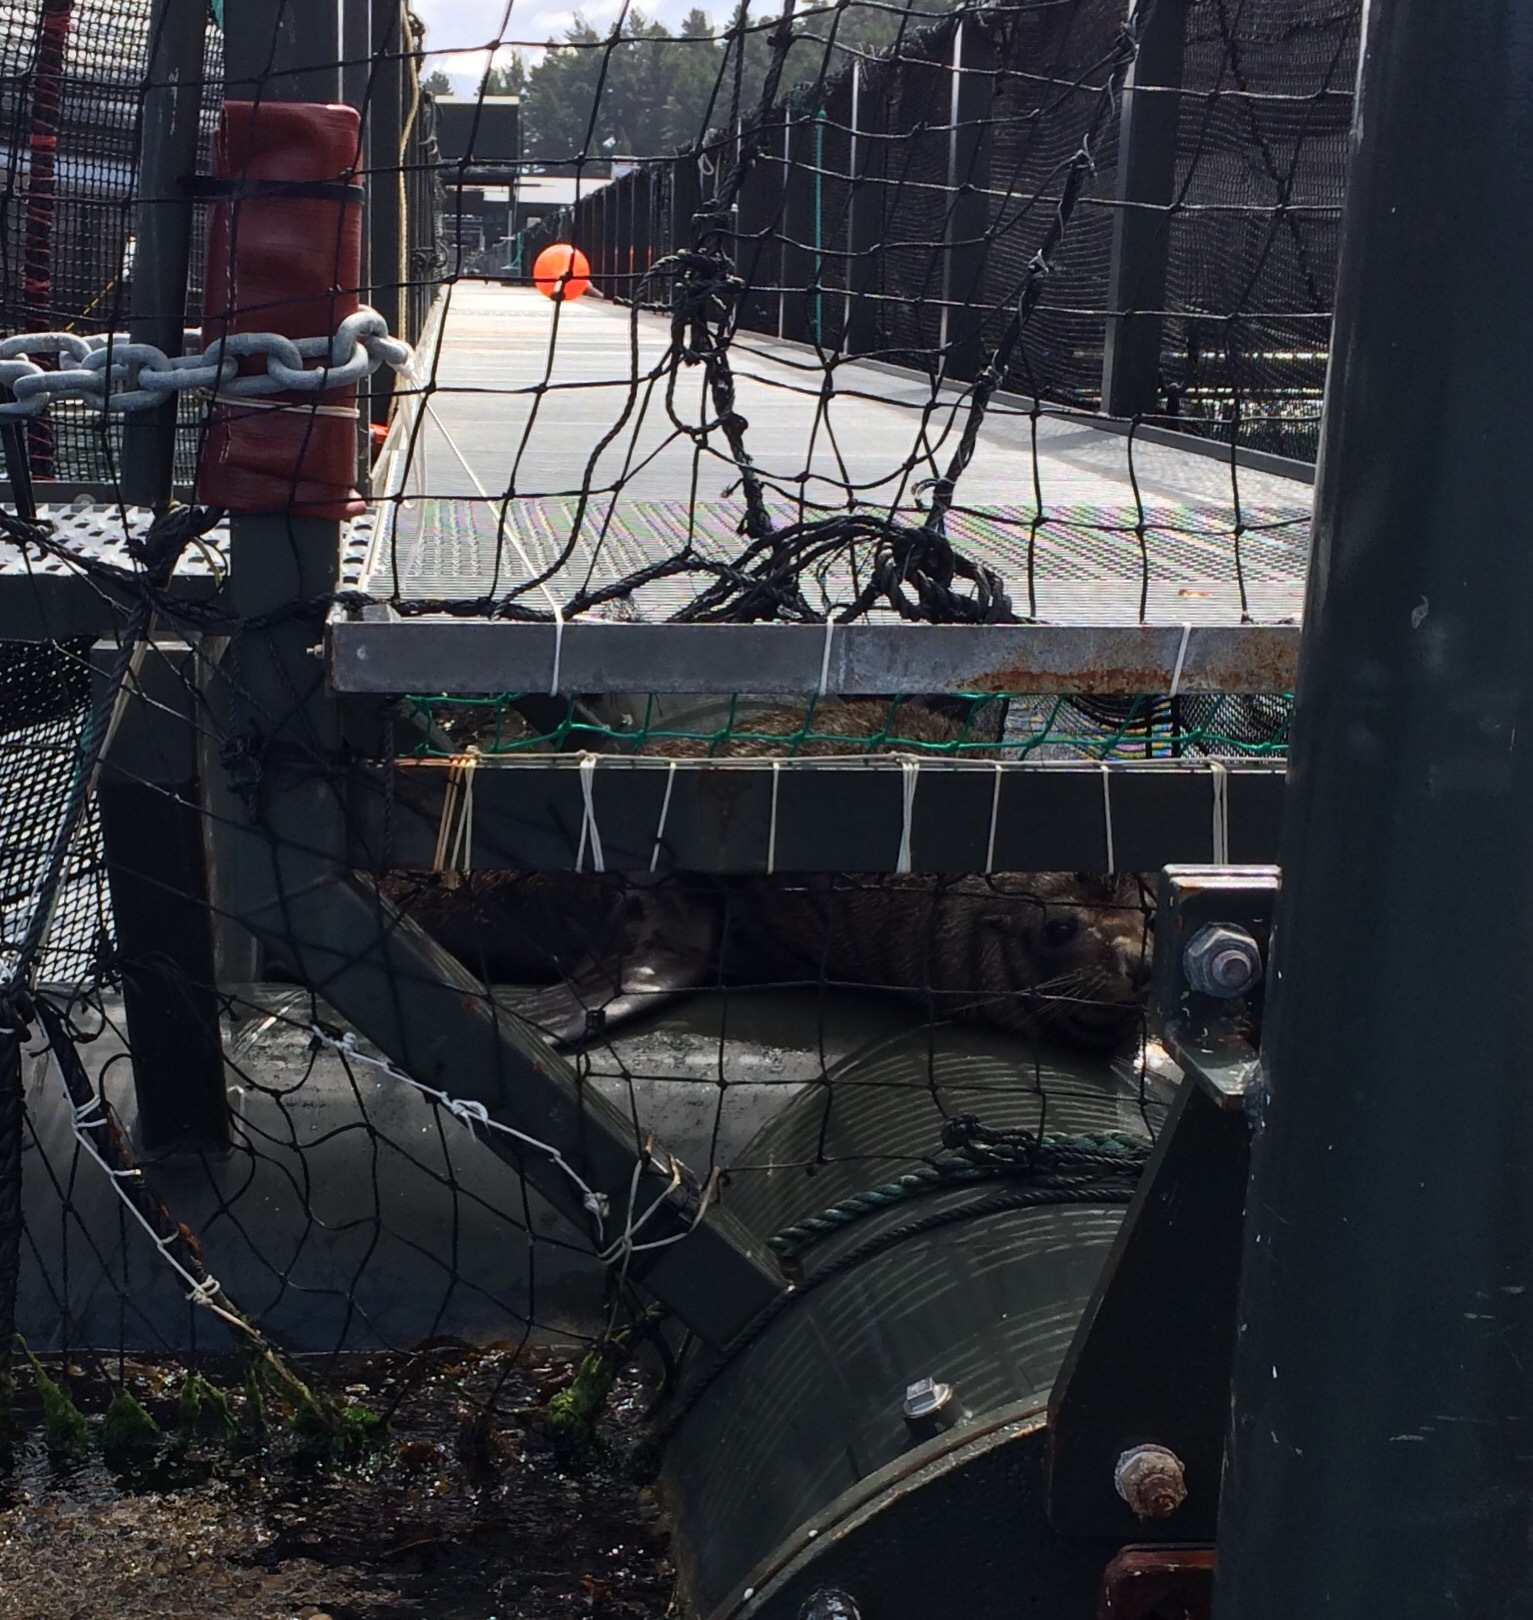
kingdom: Animalia
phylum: Chordata
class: Mammalia
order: Carnivora
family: Otariidae
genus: Arctocephalus
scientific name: Arctocephalus forsteri
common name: New zealand fur seal
